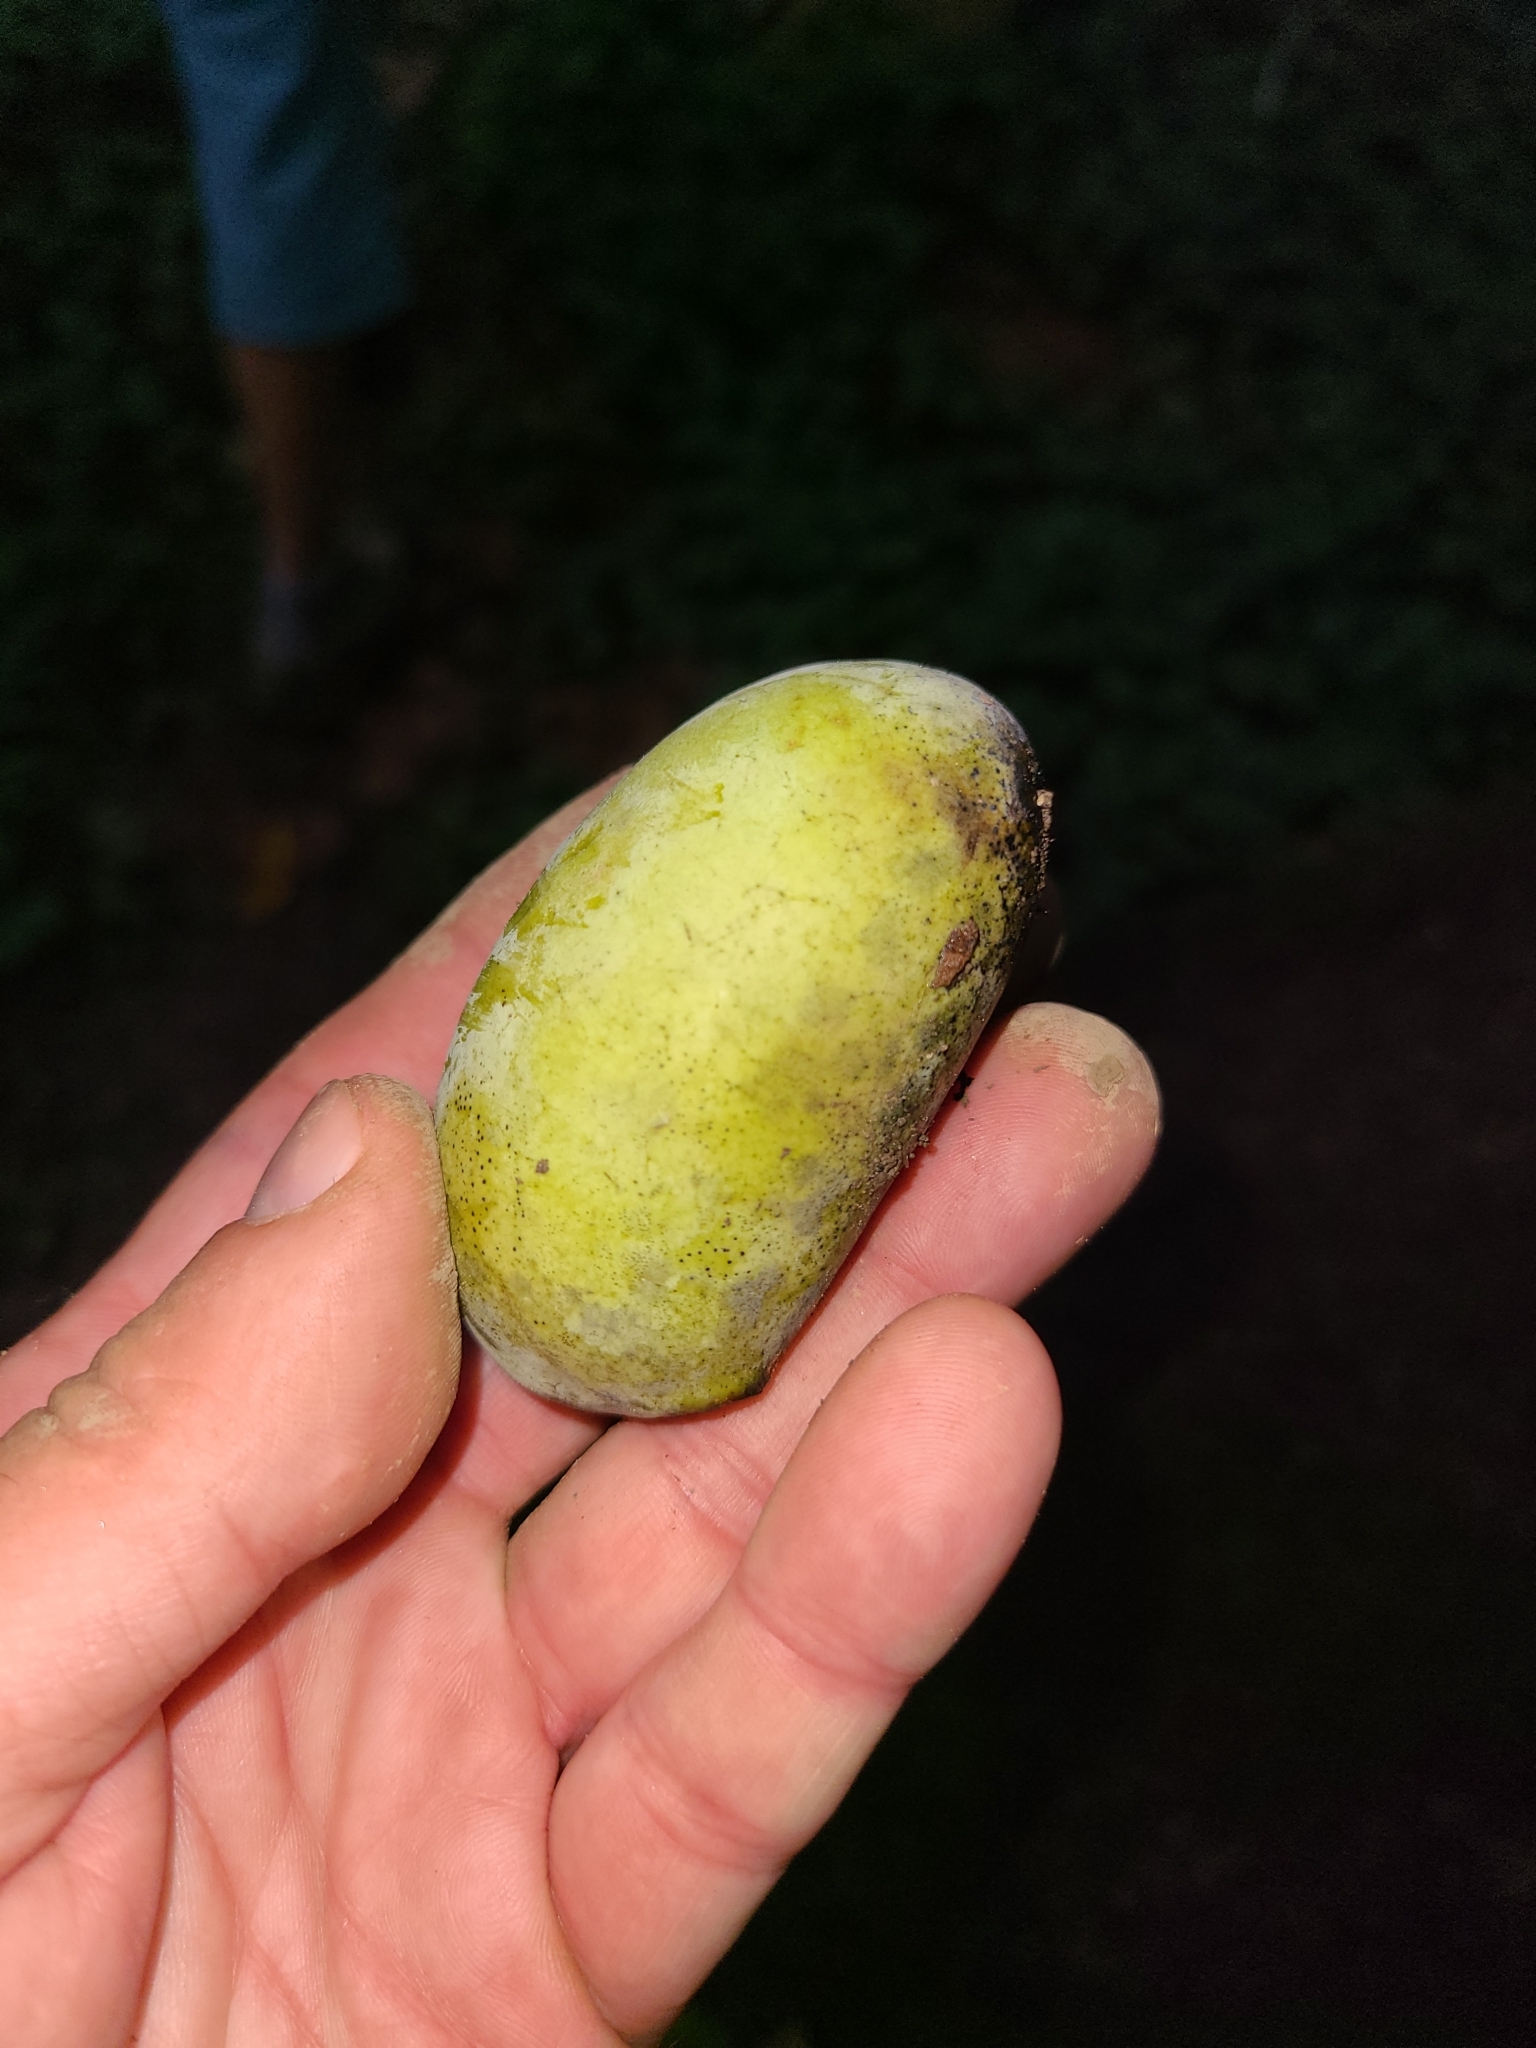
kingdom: Plantae
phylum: Tracheophyta
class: Magnoliopsida
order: Magnoliales
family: Annonaceae
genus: Asimina
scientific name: Asimina triloba
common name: Dog-banana
